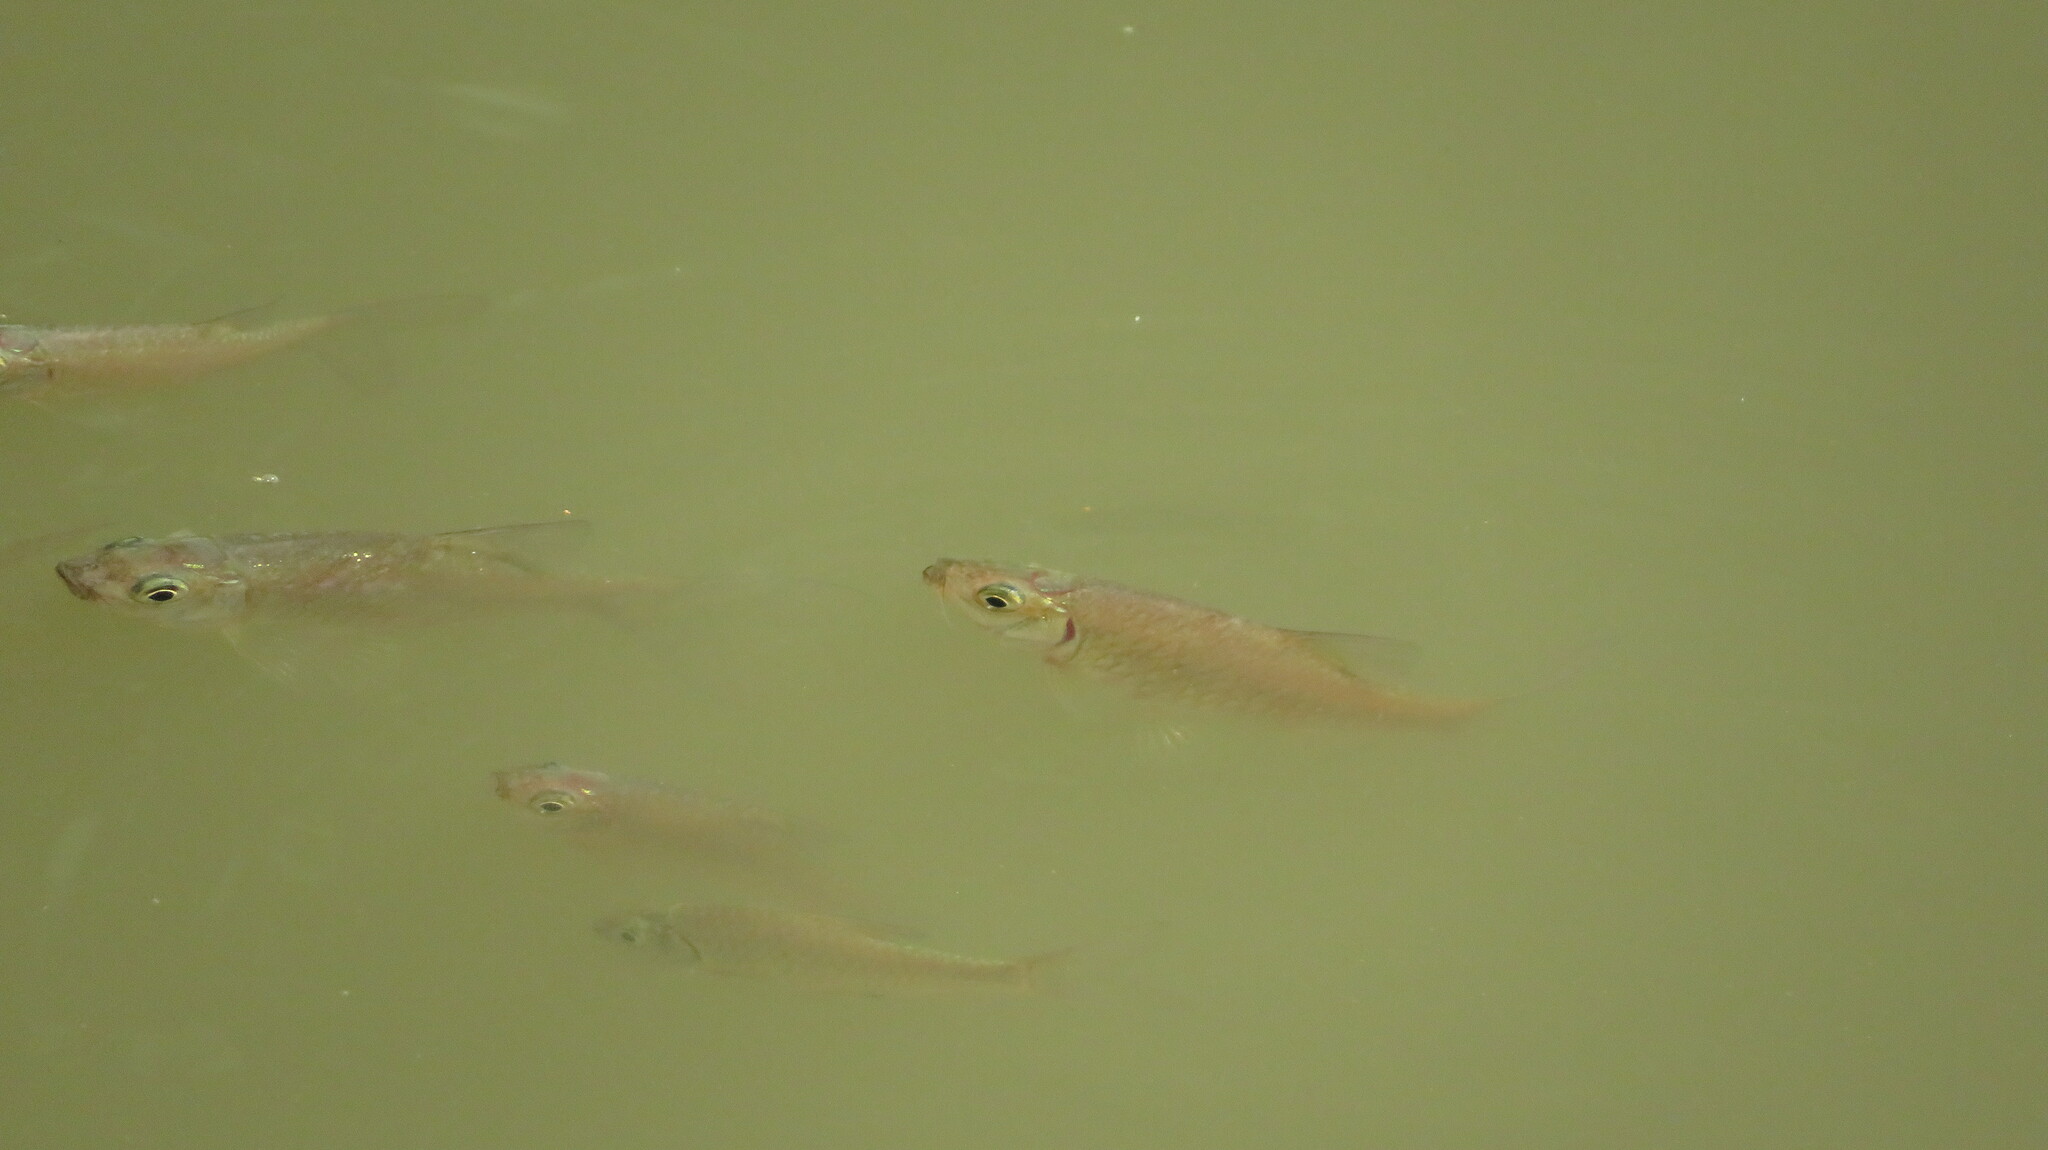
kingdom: Animalia
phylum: Chordata
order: Cypriniformes
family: Cyprinidae
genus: Barbonymus
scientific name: Barbonymus gonionotus
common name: Silver barb
